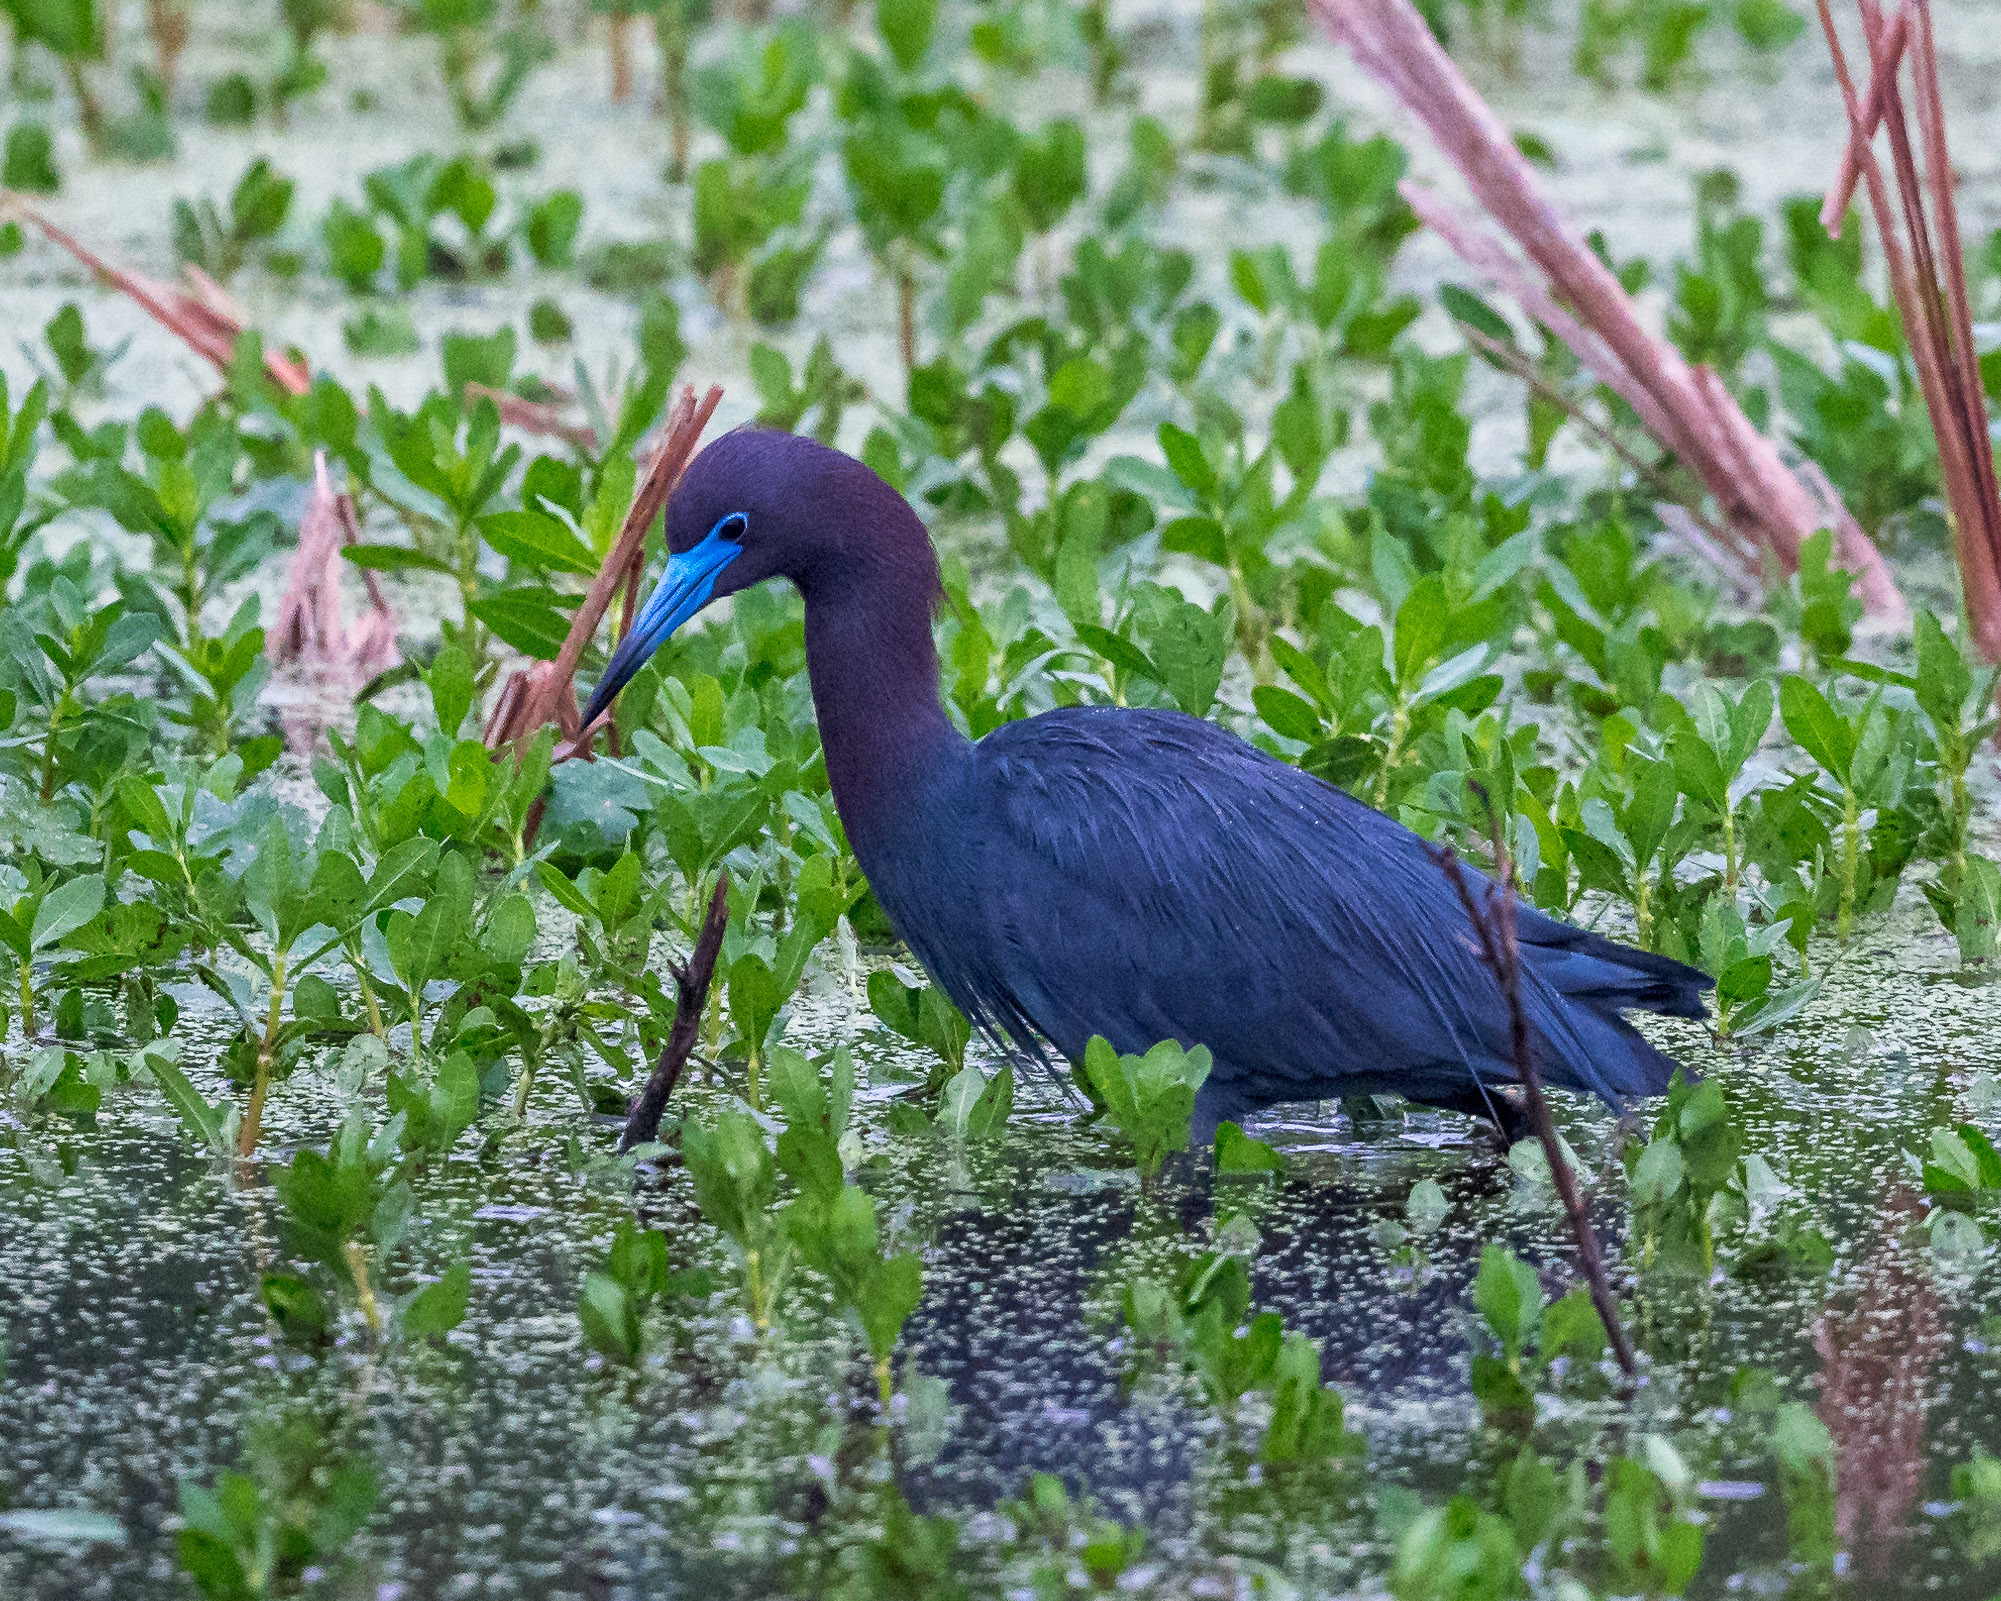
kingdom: Animalia
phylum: Chordata
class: Aves
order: Pelecaniformes
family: Ardeidae
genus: Egretta
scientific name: Egretta caerulea
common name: Little blue heron
